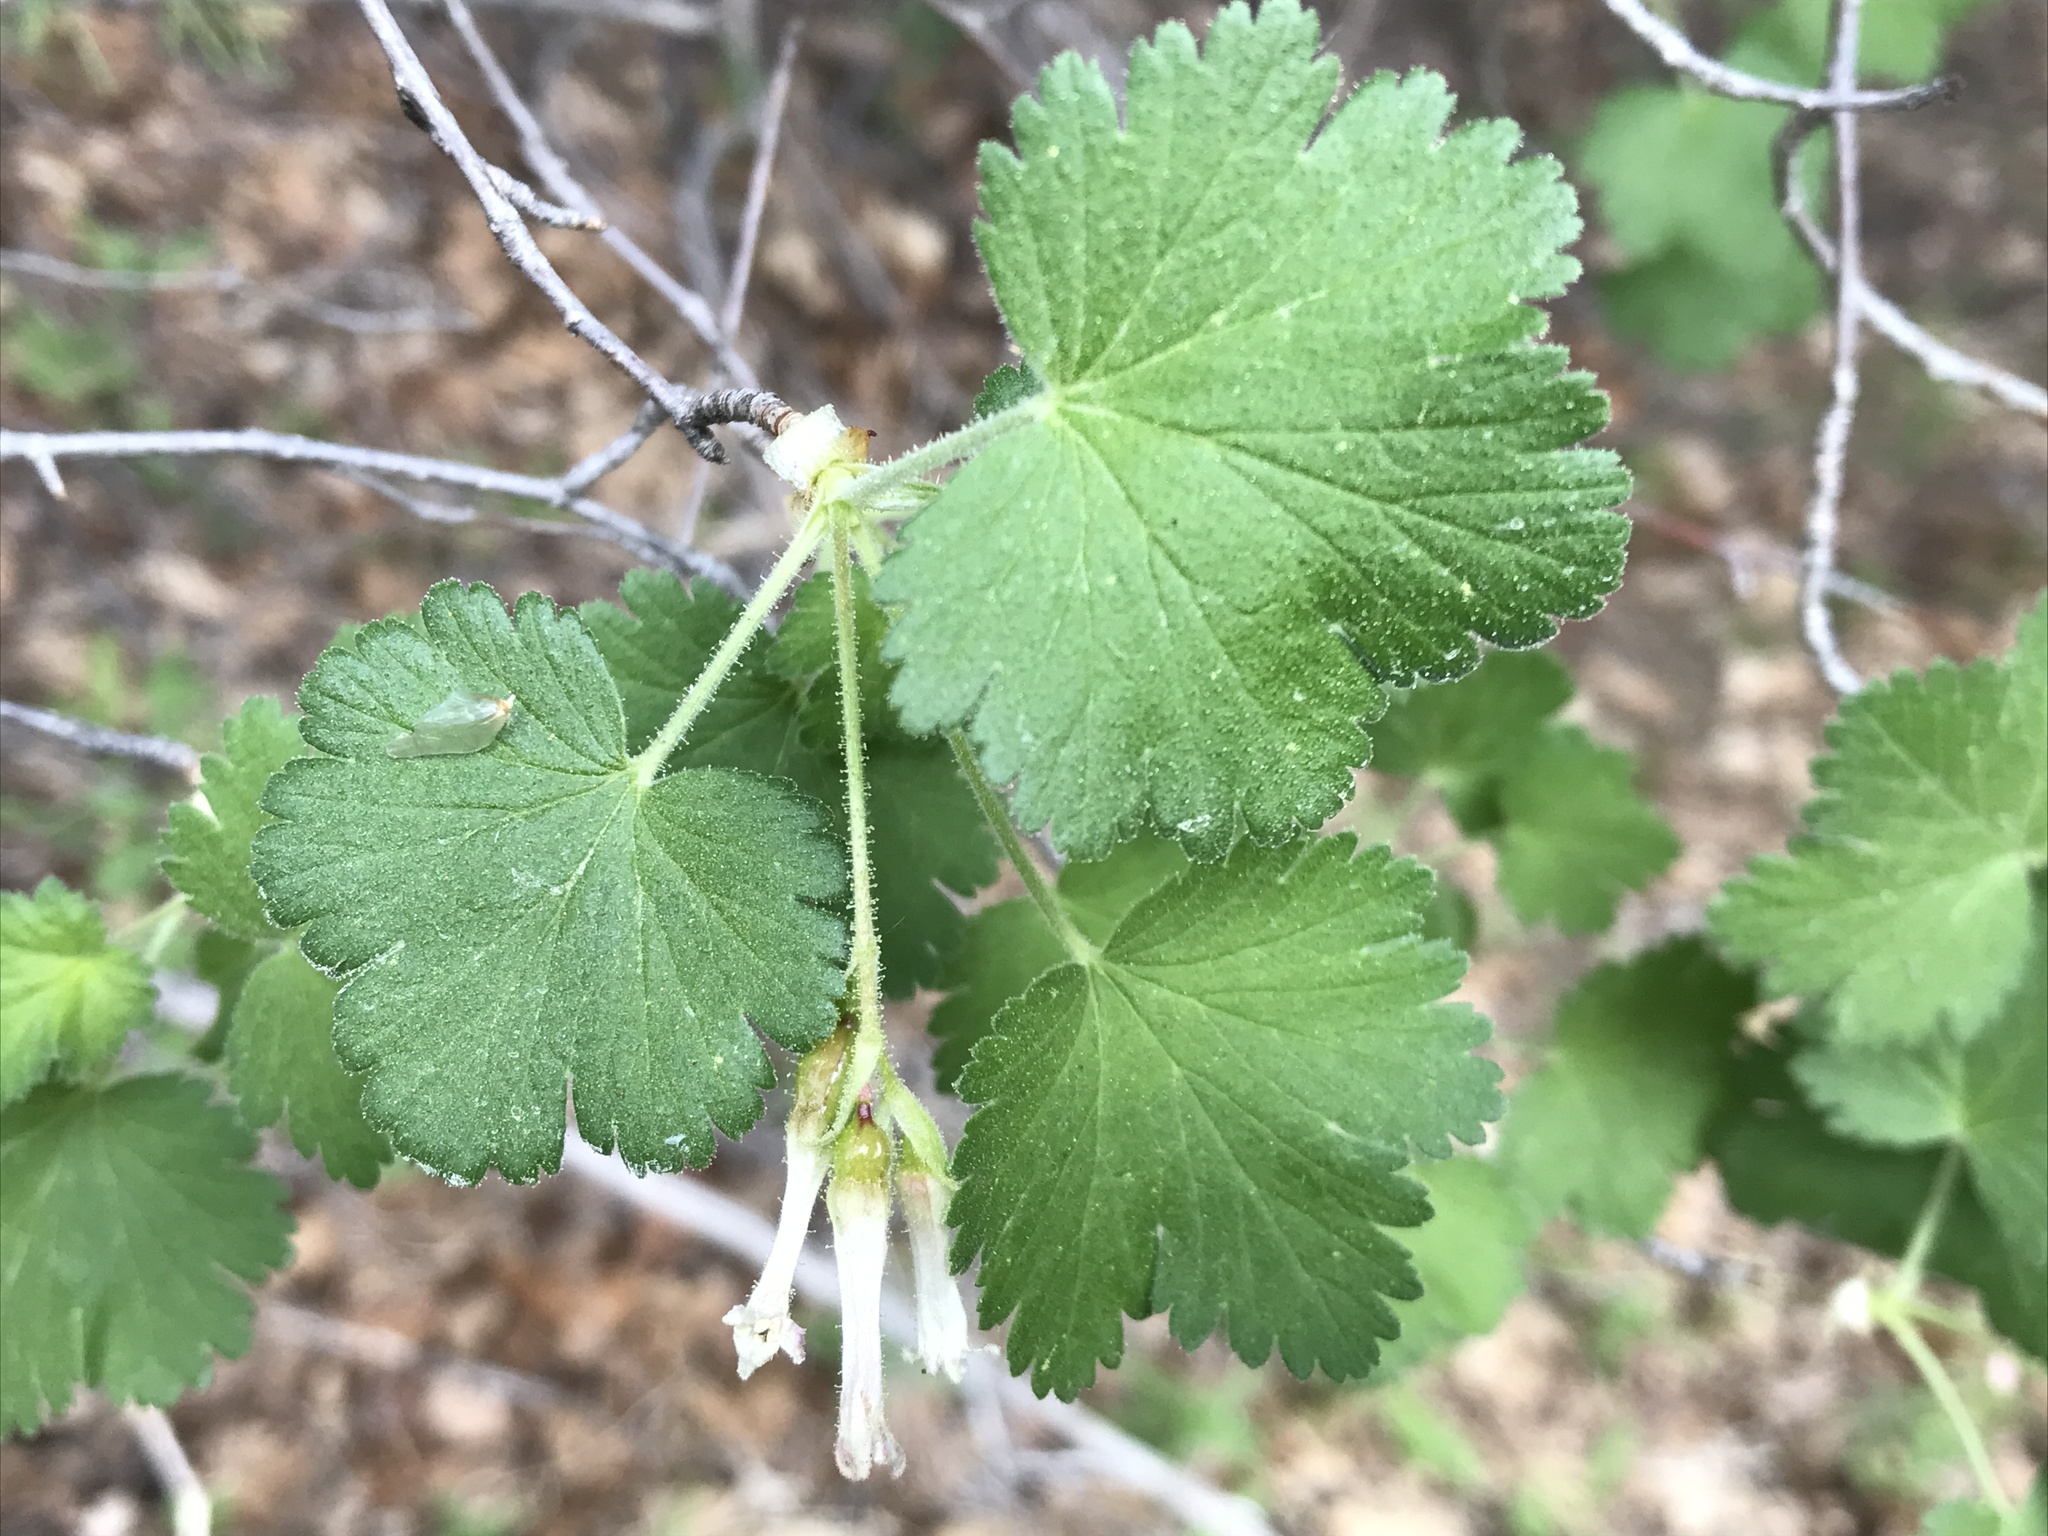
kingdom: Plantae
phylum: Tracheophyta
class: Magnoliopsida
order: Saxifragales
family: Grossulariaceae
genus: Ribes
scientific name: Ribes cereum
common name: Wax currant
